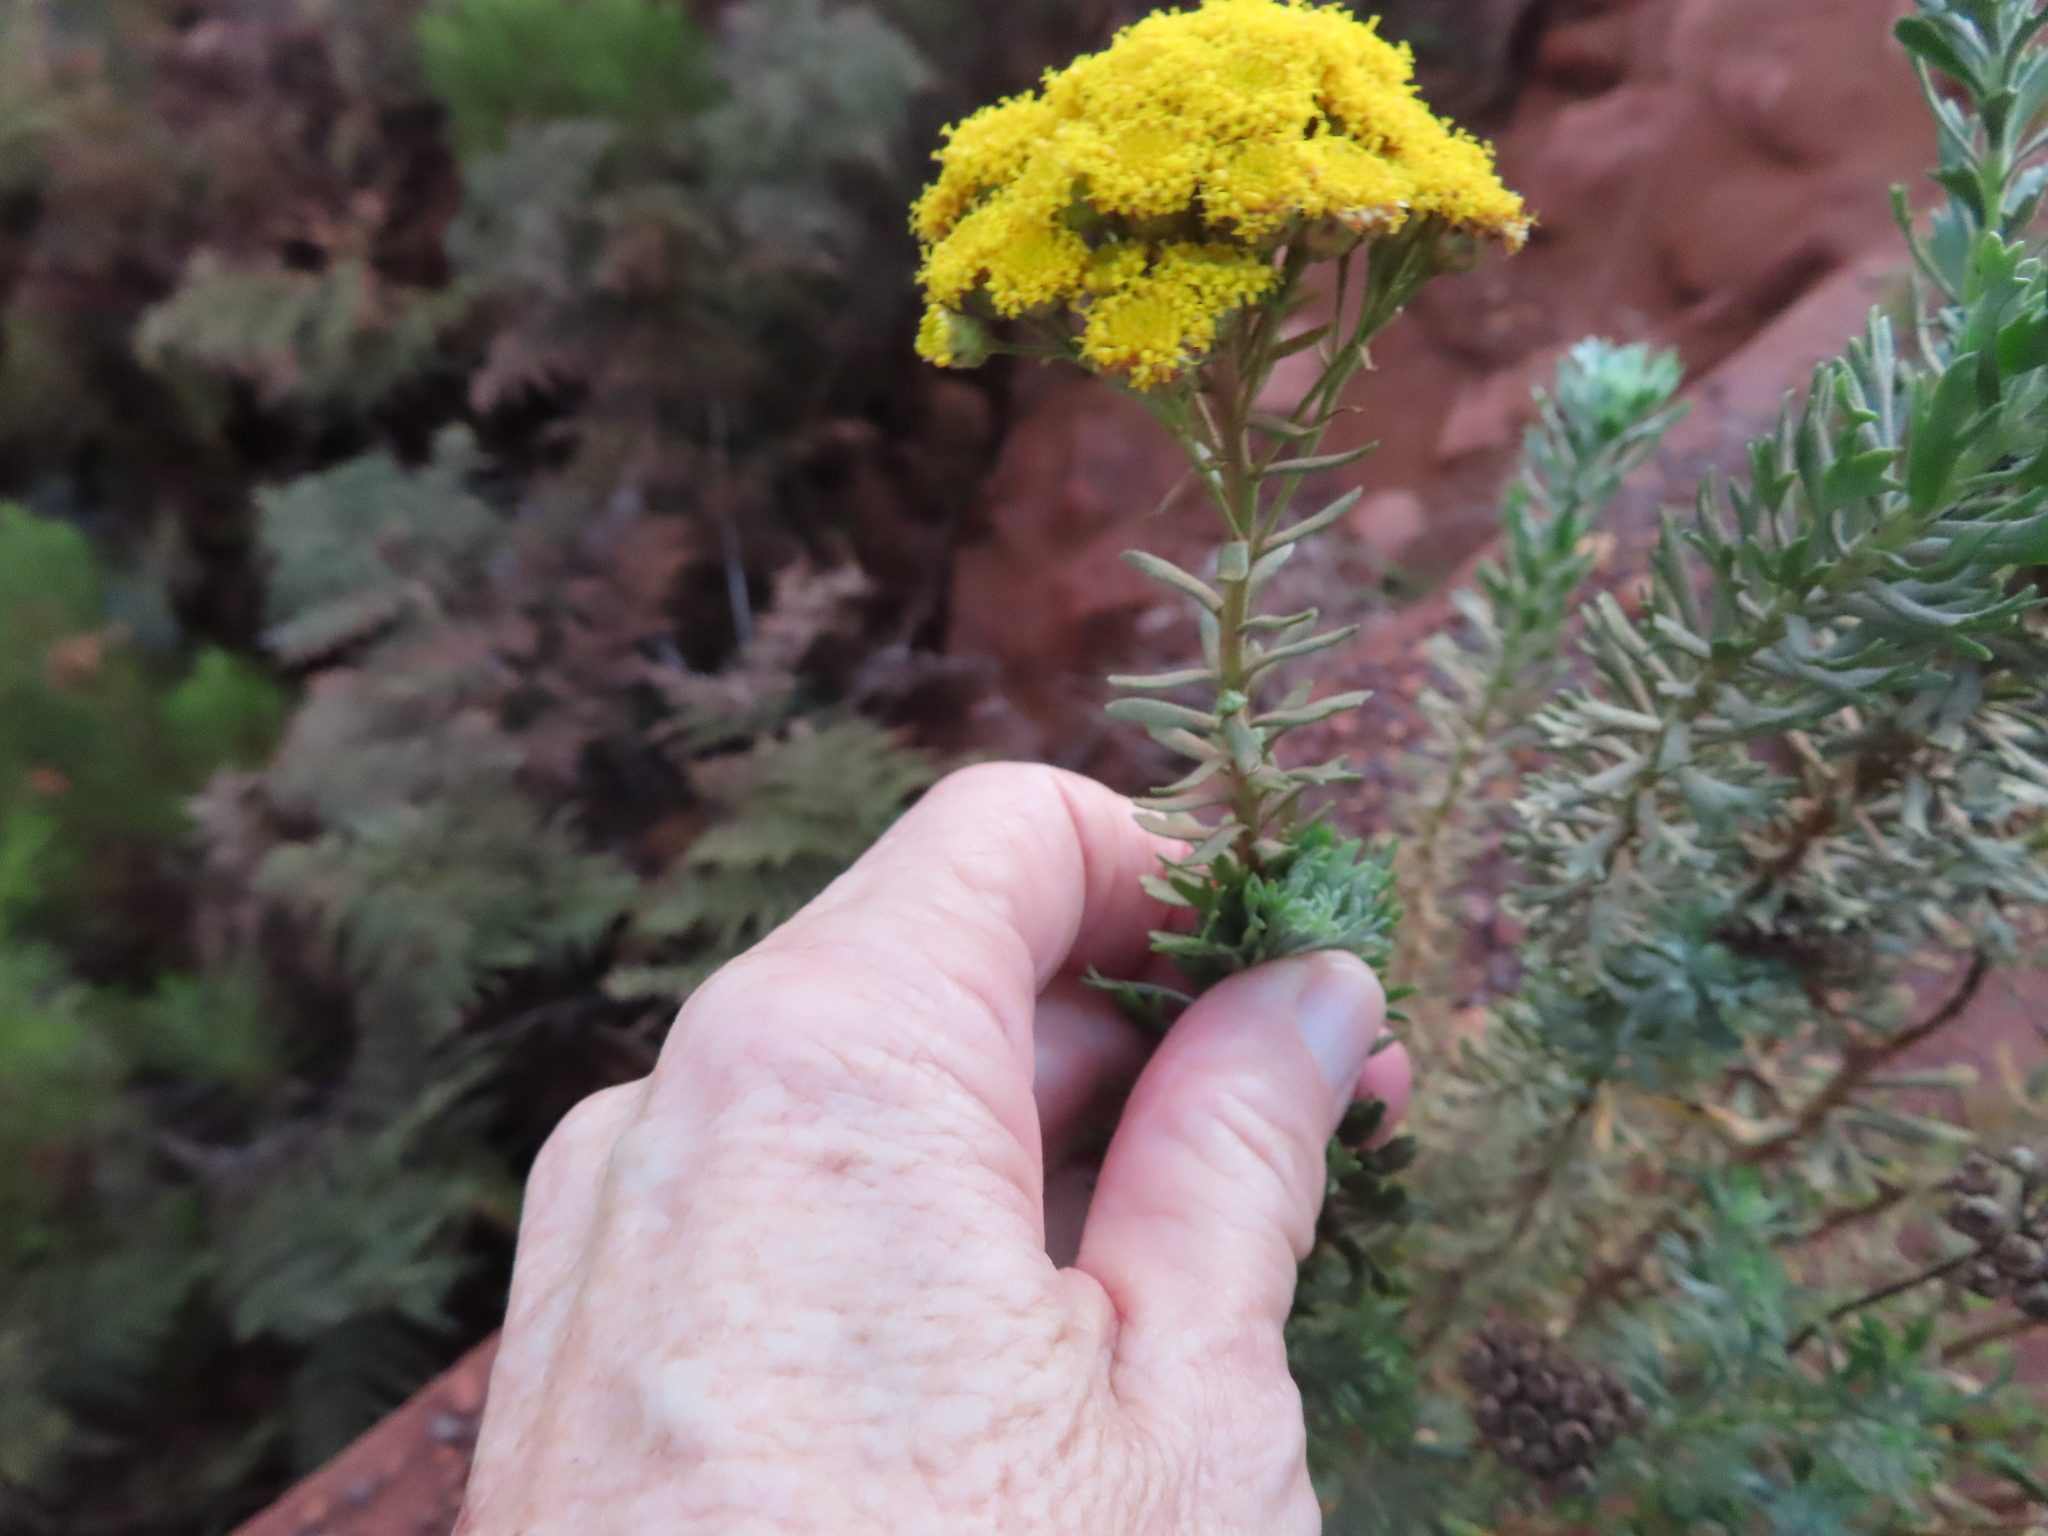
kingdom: Plantae
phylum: Tracheophyta
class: Magnoliopsida
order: Asterales
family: Asteraceae
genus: Athanasia
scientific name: Athanasia trifurcata
